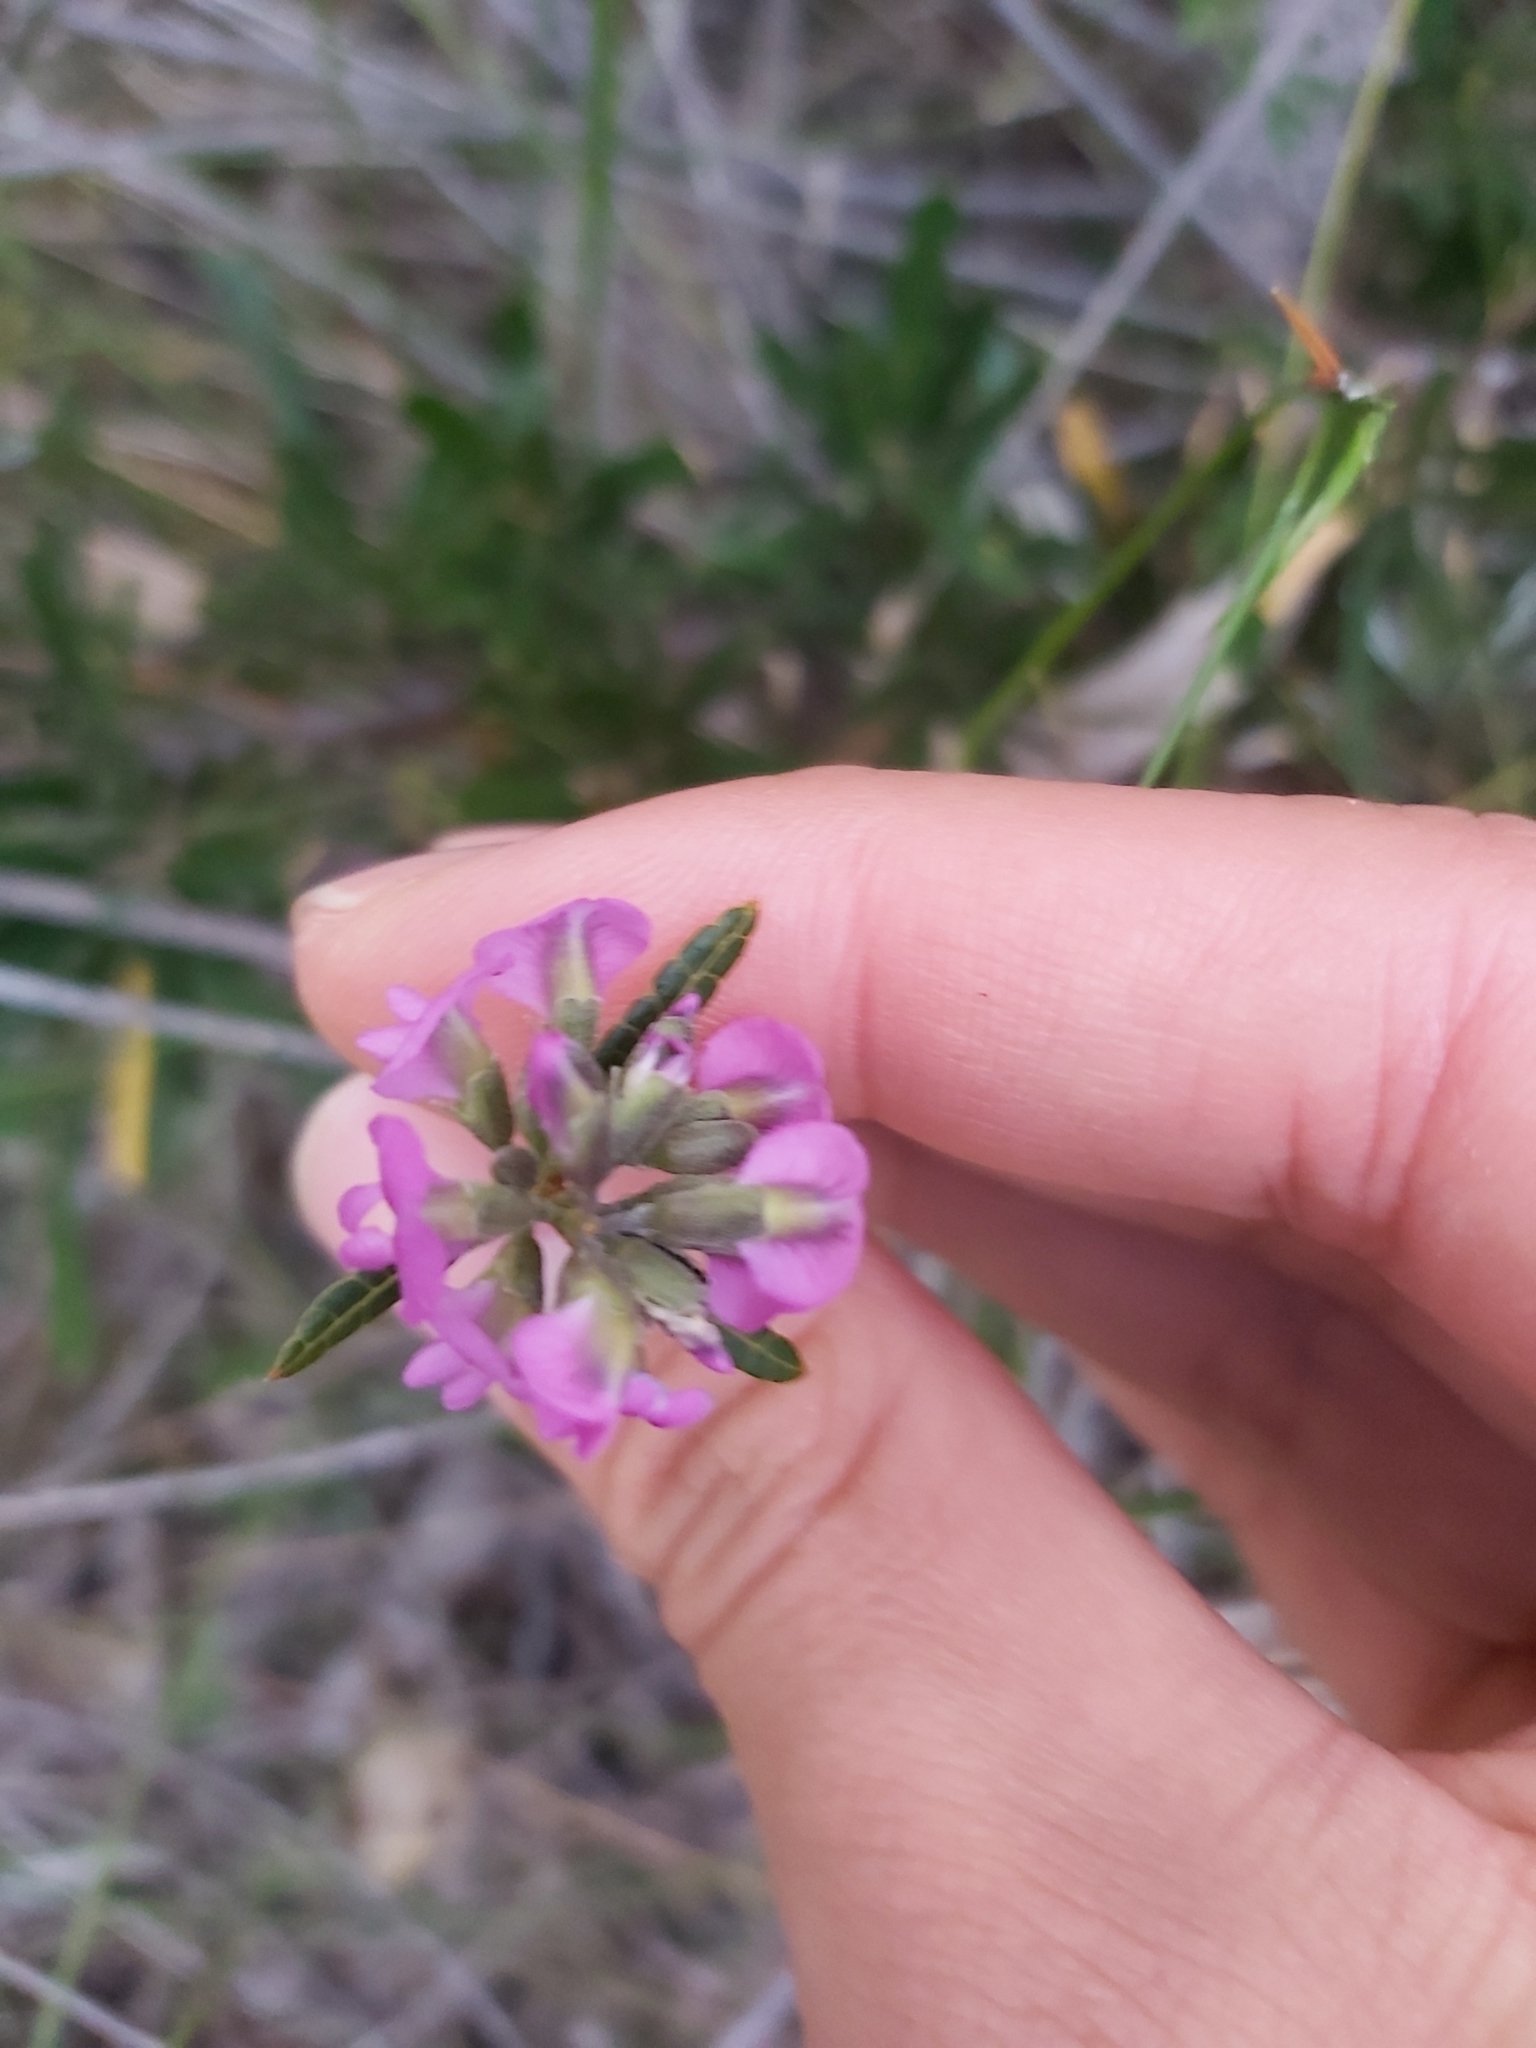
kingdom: Plantae
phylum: Tracheophyta
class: Magnoliopsida
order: Fabales
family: Fabaceae
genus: Mirbelia
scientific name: Mirbelia rubiifolia
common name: Heathy mirbelia
